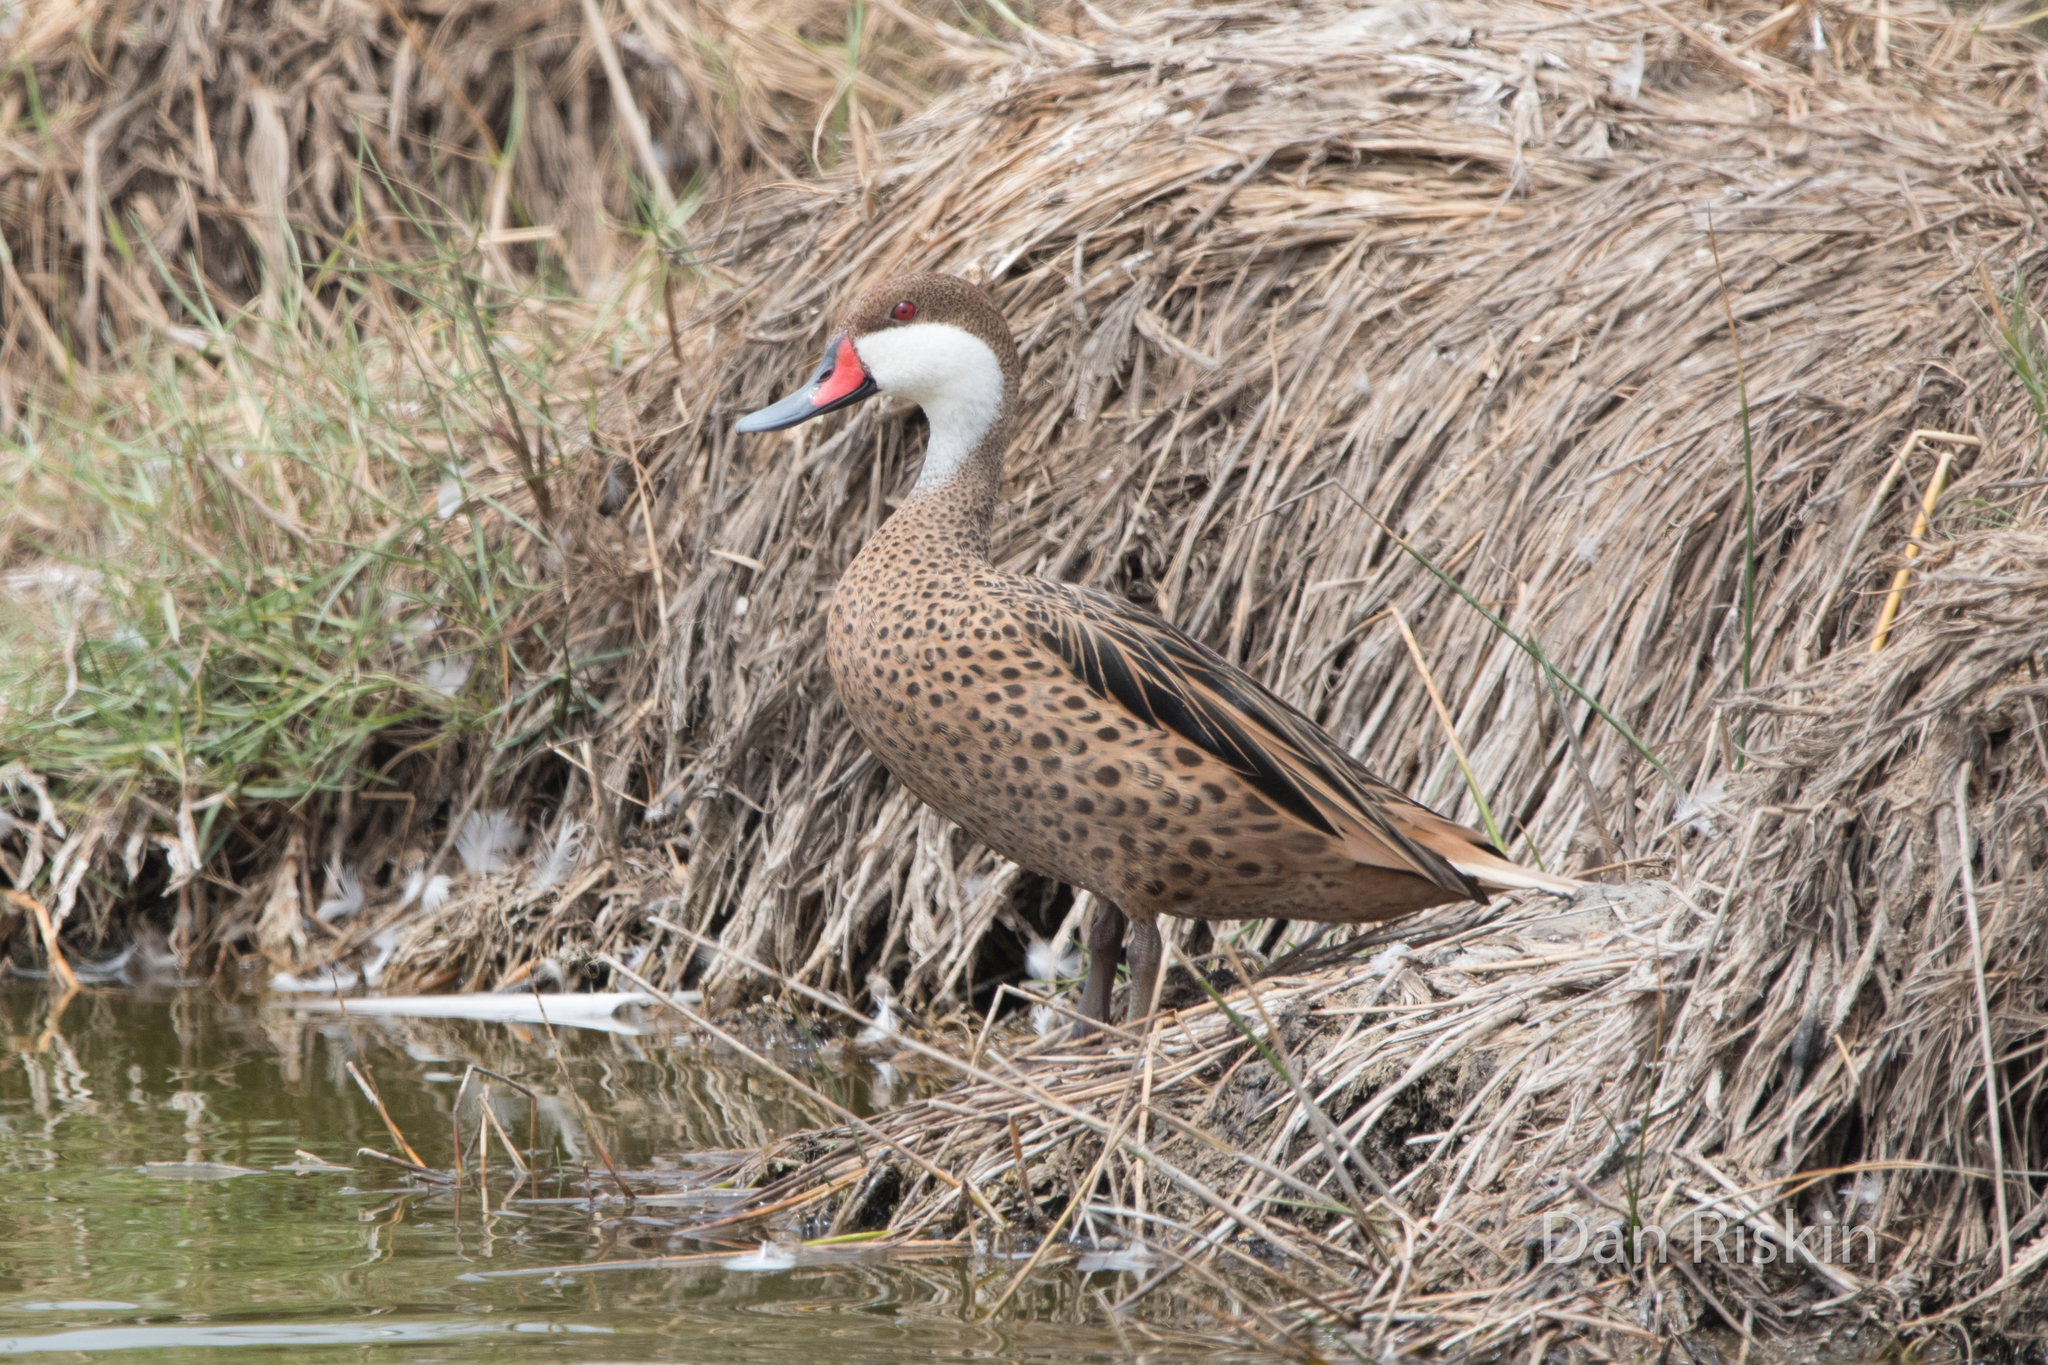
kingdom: Animalia
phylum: Chordata
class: Aves
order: Anseriformes
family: Anatidae
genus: Anas
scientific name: Anas bahamensis
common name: White-cheeked pintail
